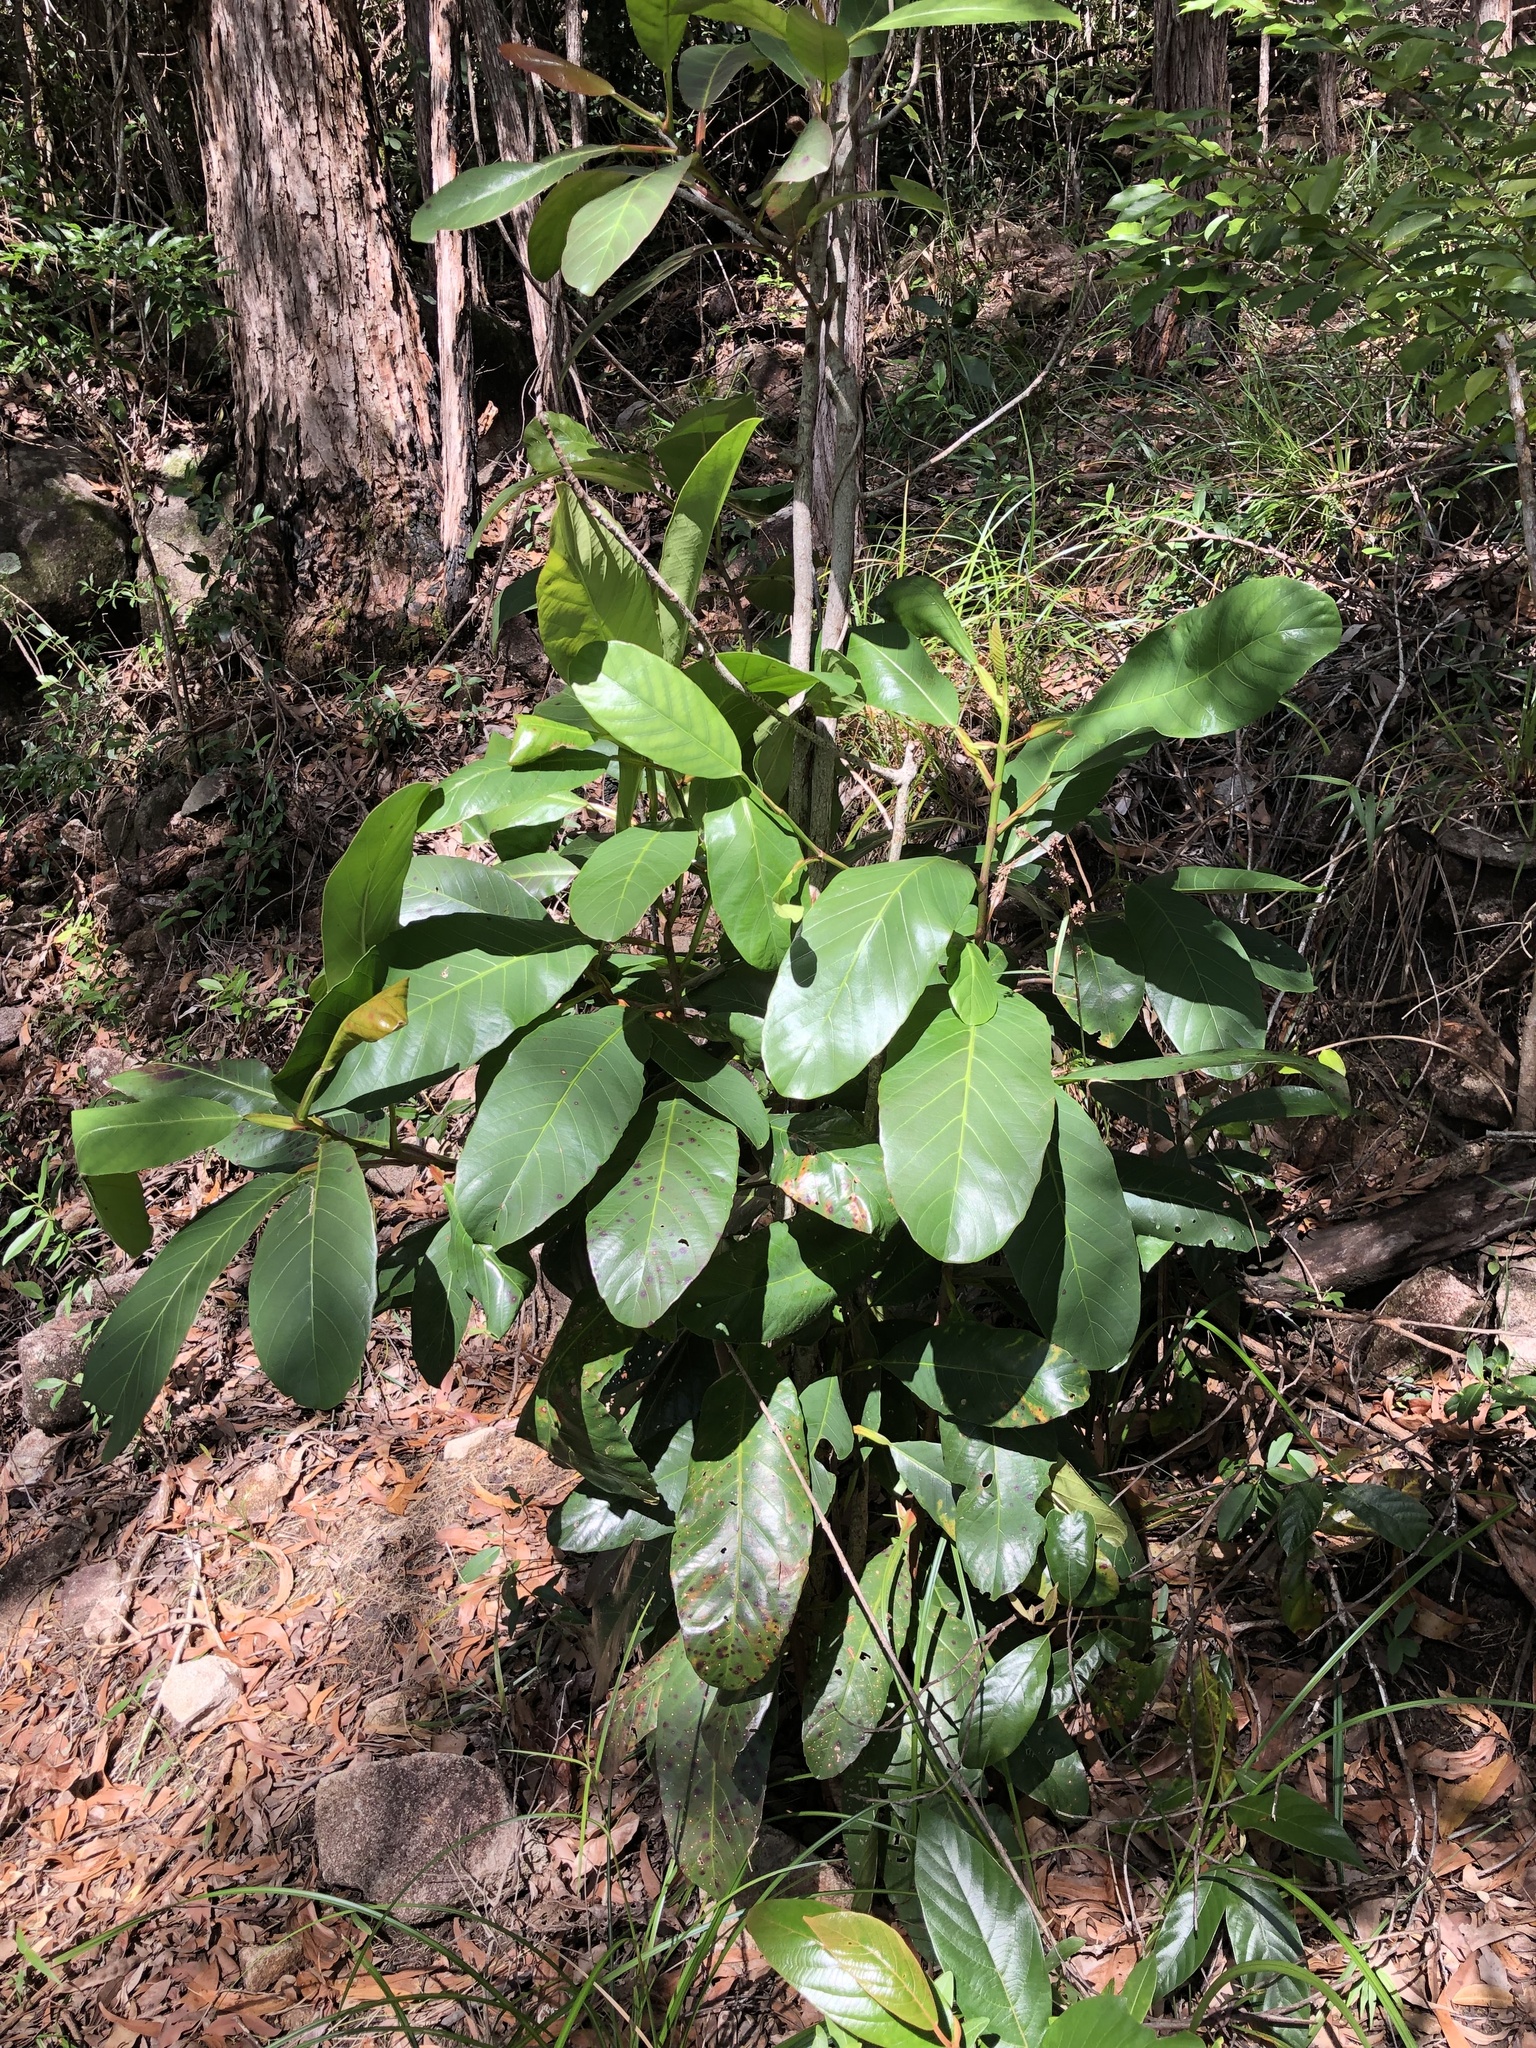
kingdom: Plantae
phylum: Tracheophyta
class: Magnoliopsida
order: Dilleniales
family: Dilleniaceae
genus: Dillenia
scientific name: Dillenia alata
